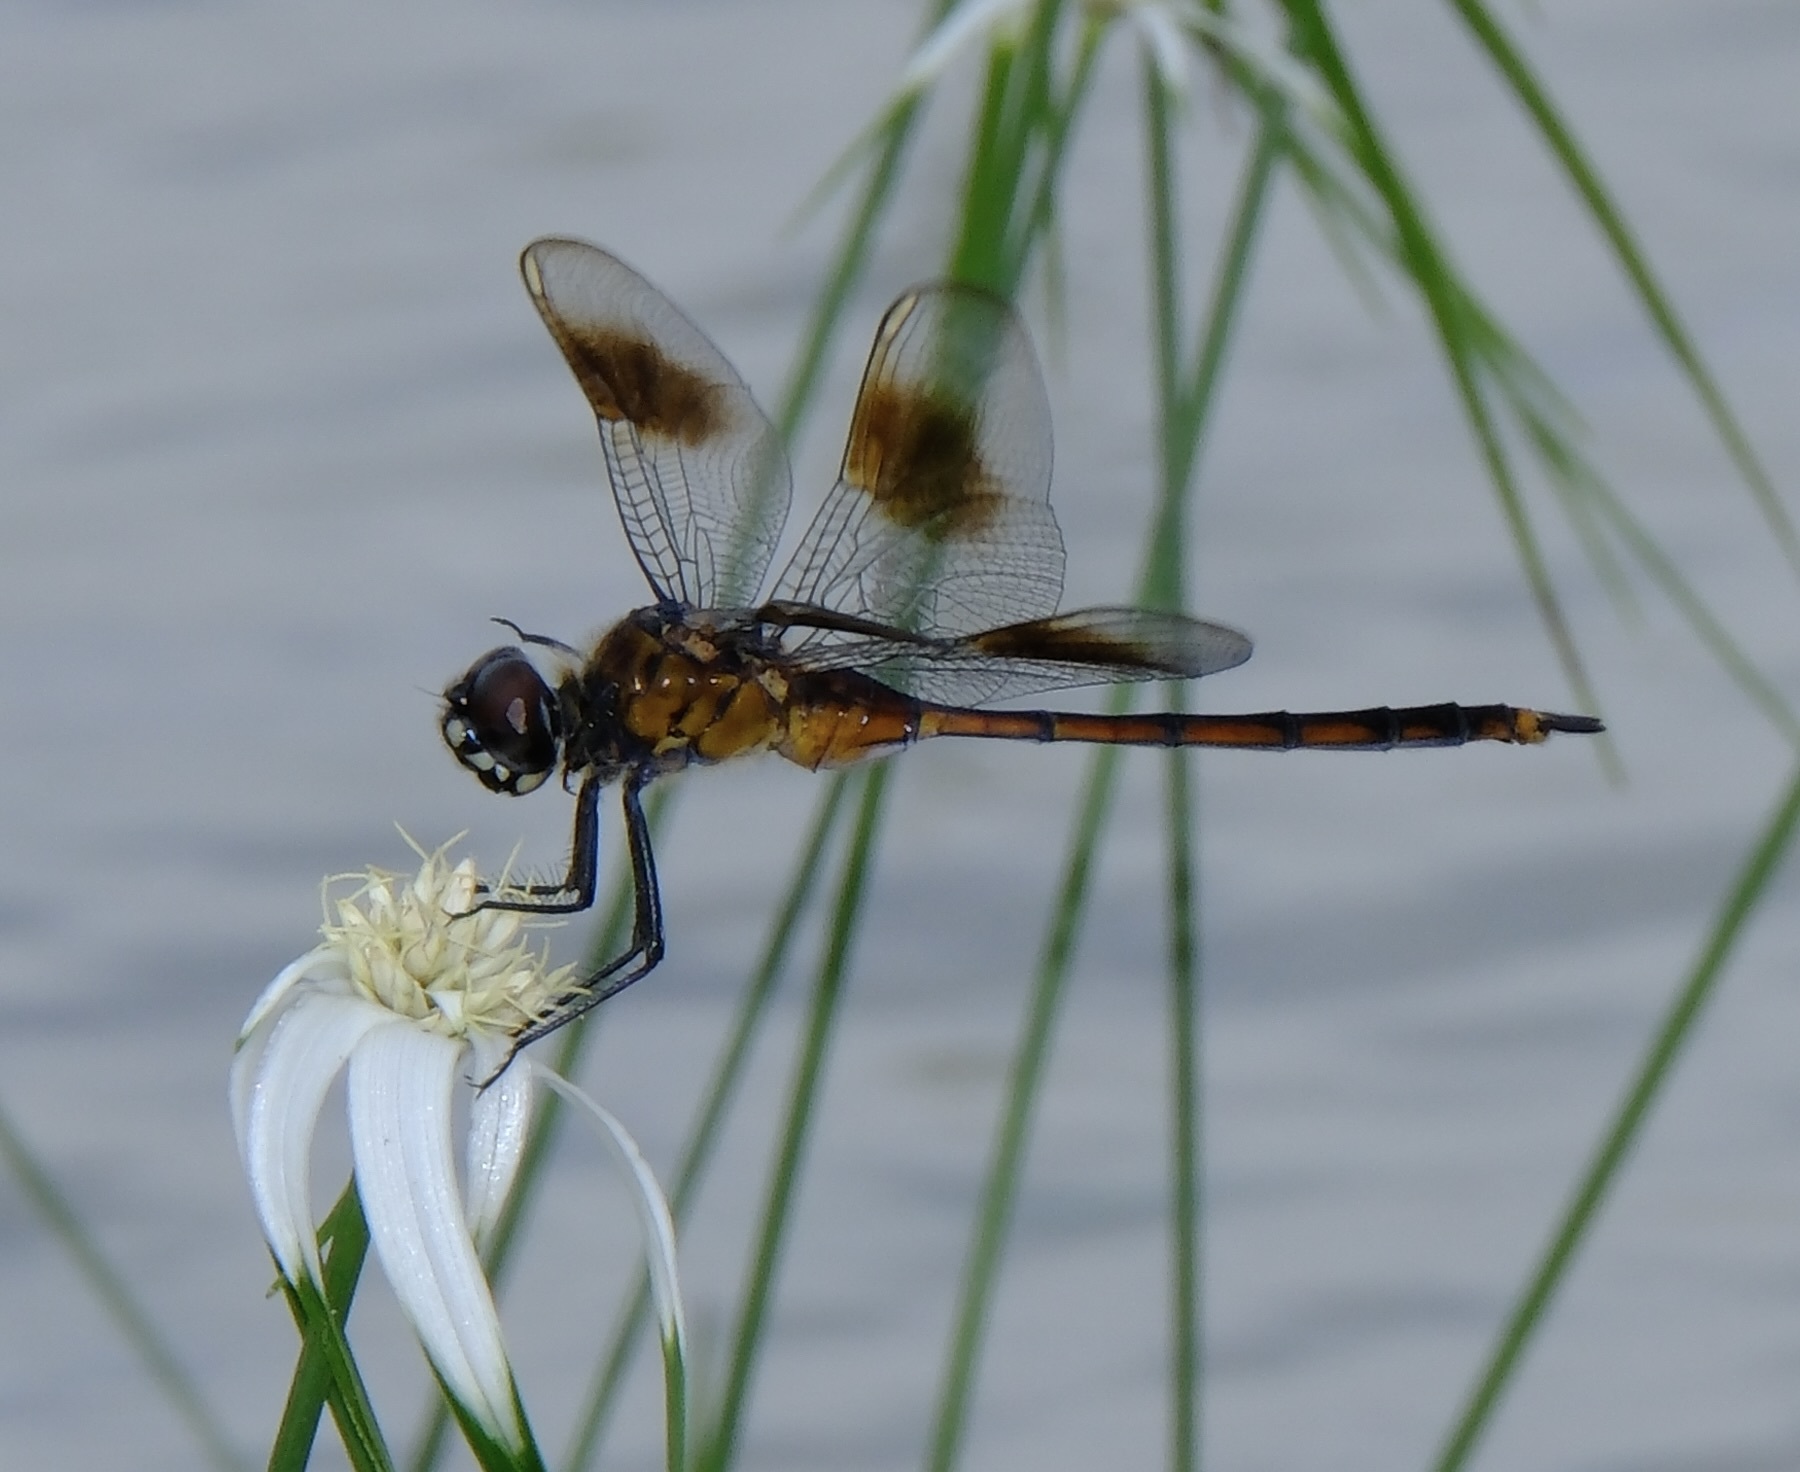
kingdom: Animalia
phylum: Arthropoda
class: Insecta
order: Odonata
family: Libellulidae
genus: Brachymesia
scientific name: Brachymesia gravida
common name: Four-spotted pennant
